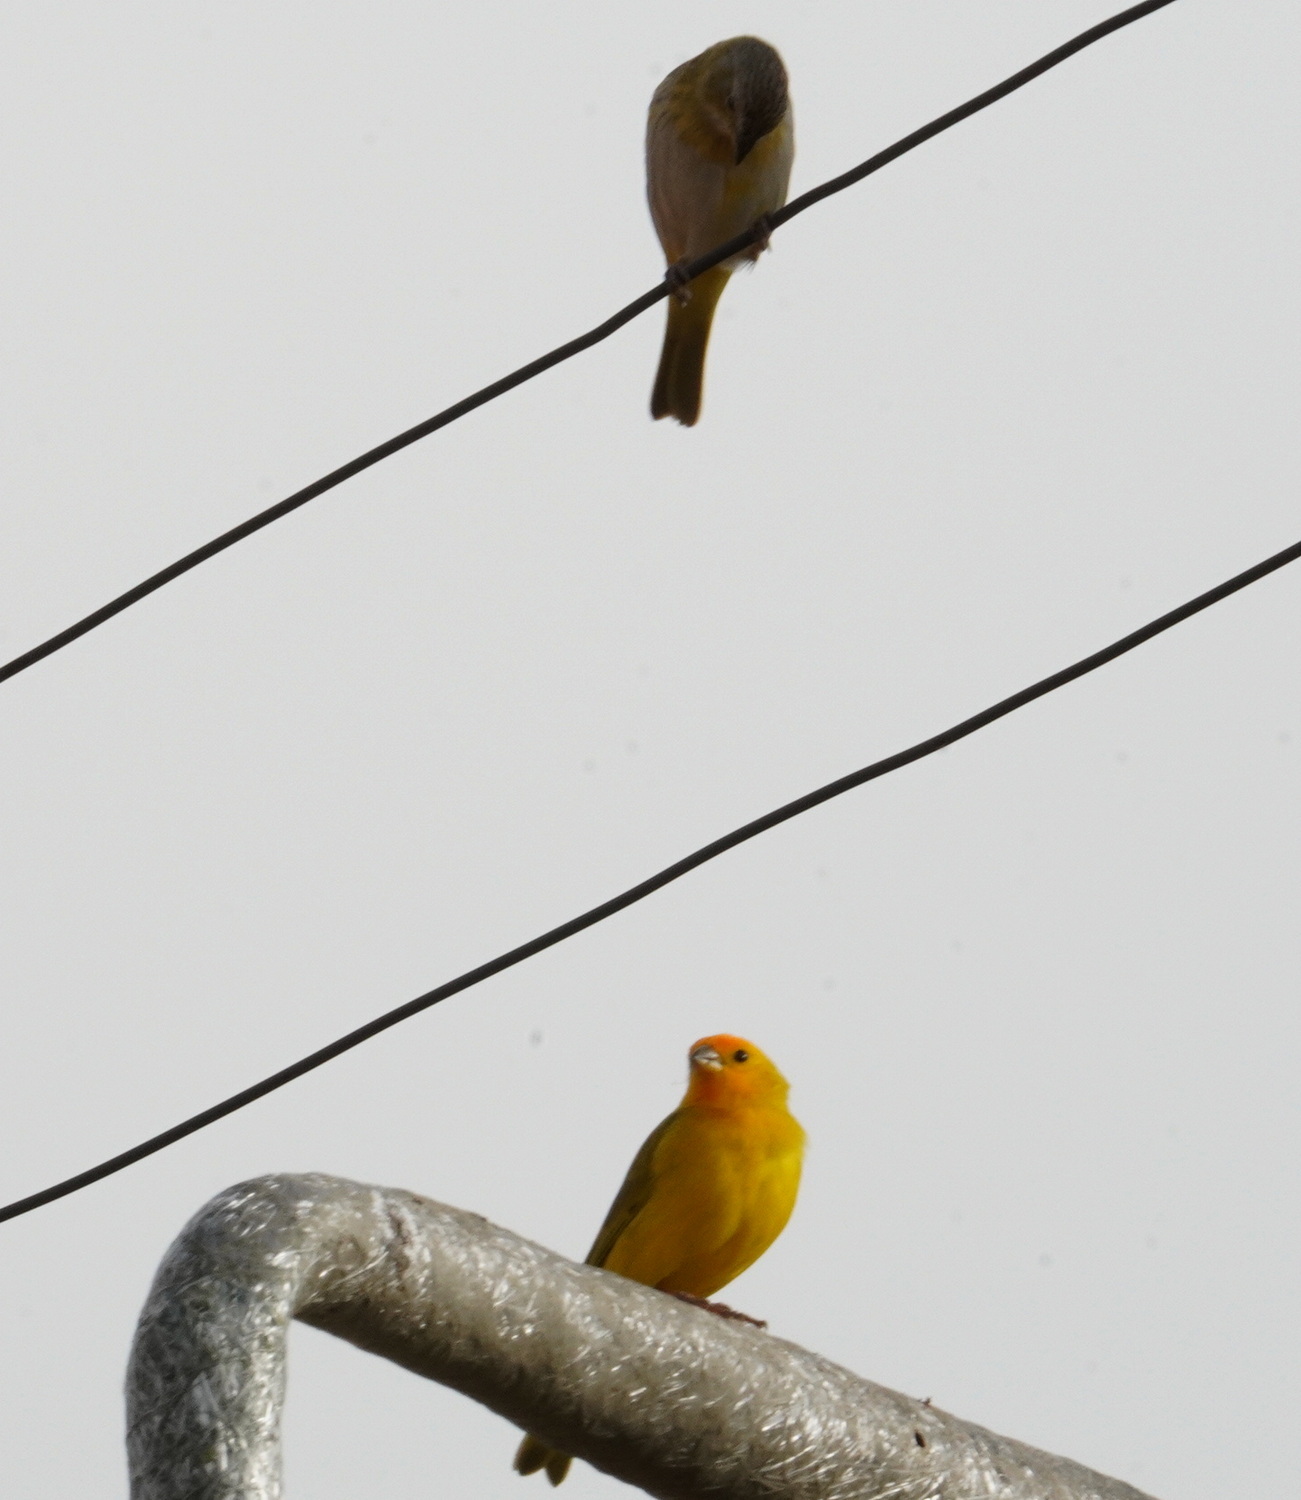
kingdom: Animalia
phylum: Chordata
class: Aves
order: Passeriformes
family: Thraupidae
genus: Sicalis
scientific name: Sicalis flaveola
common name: Saffron finch
